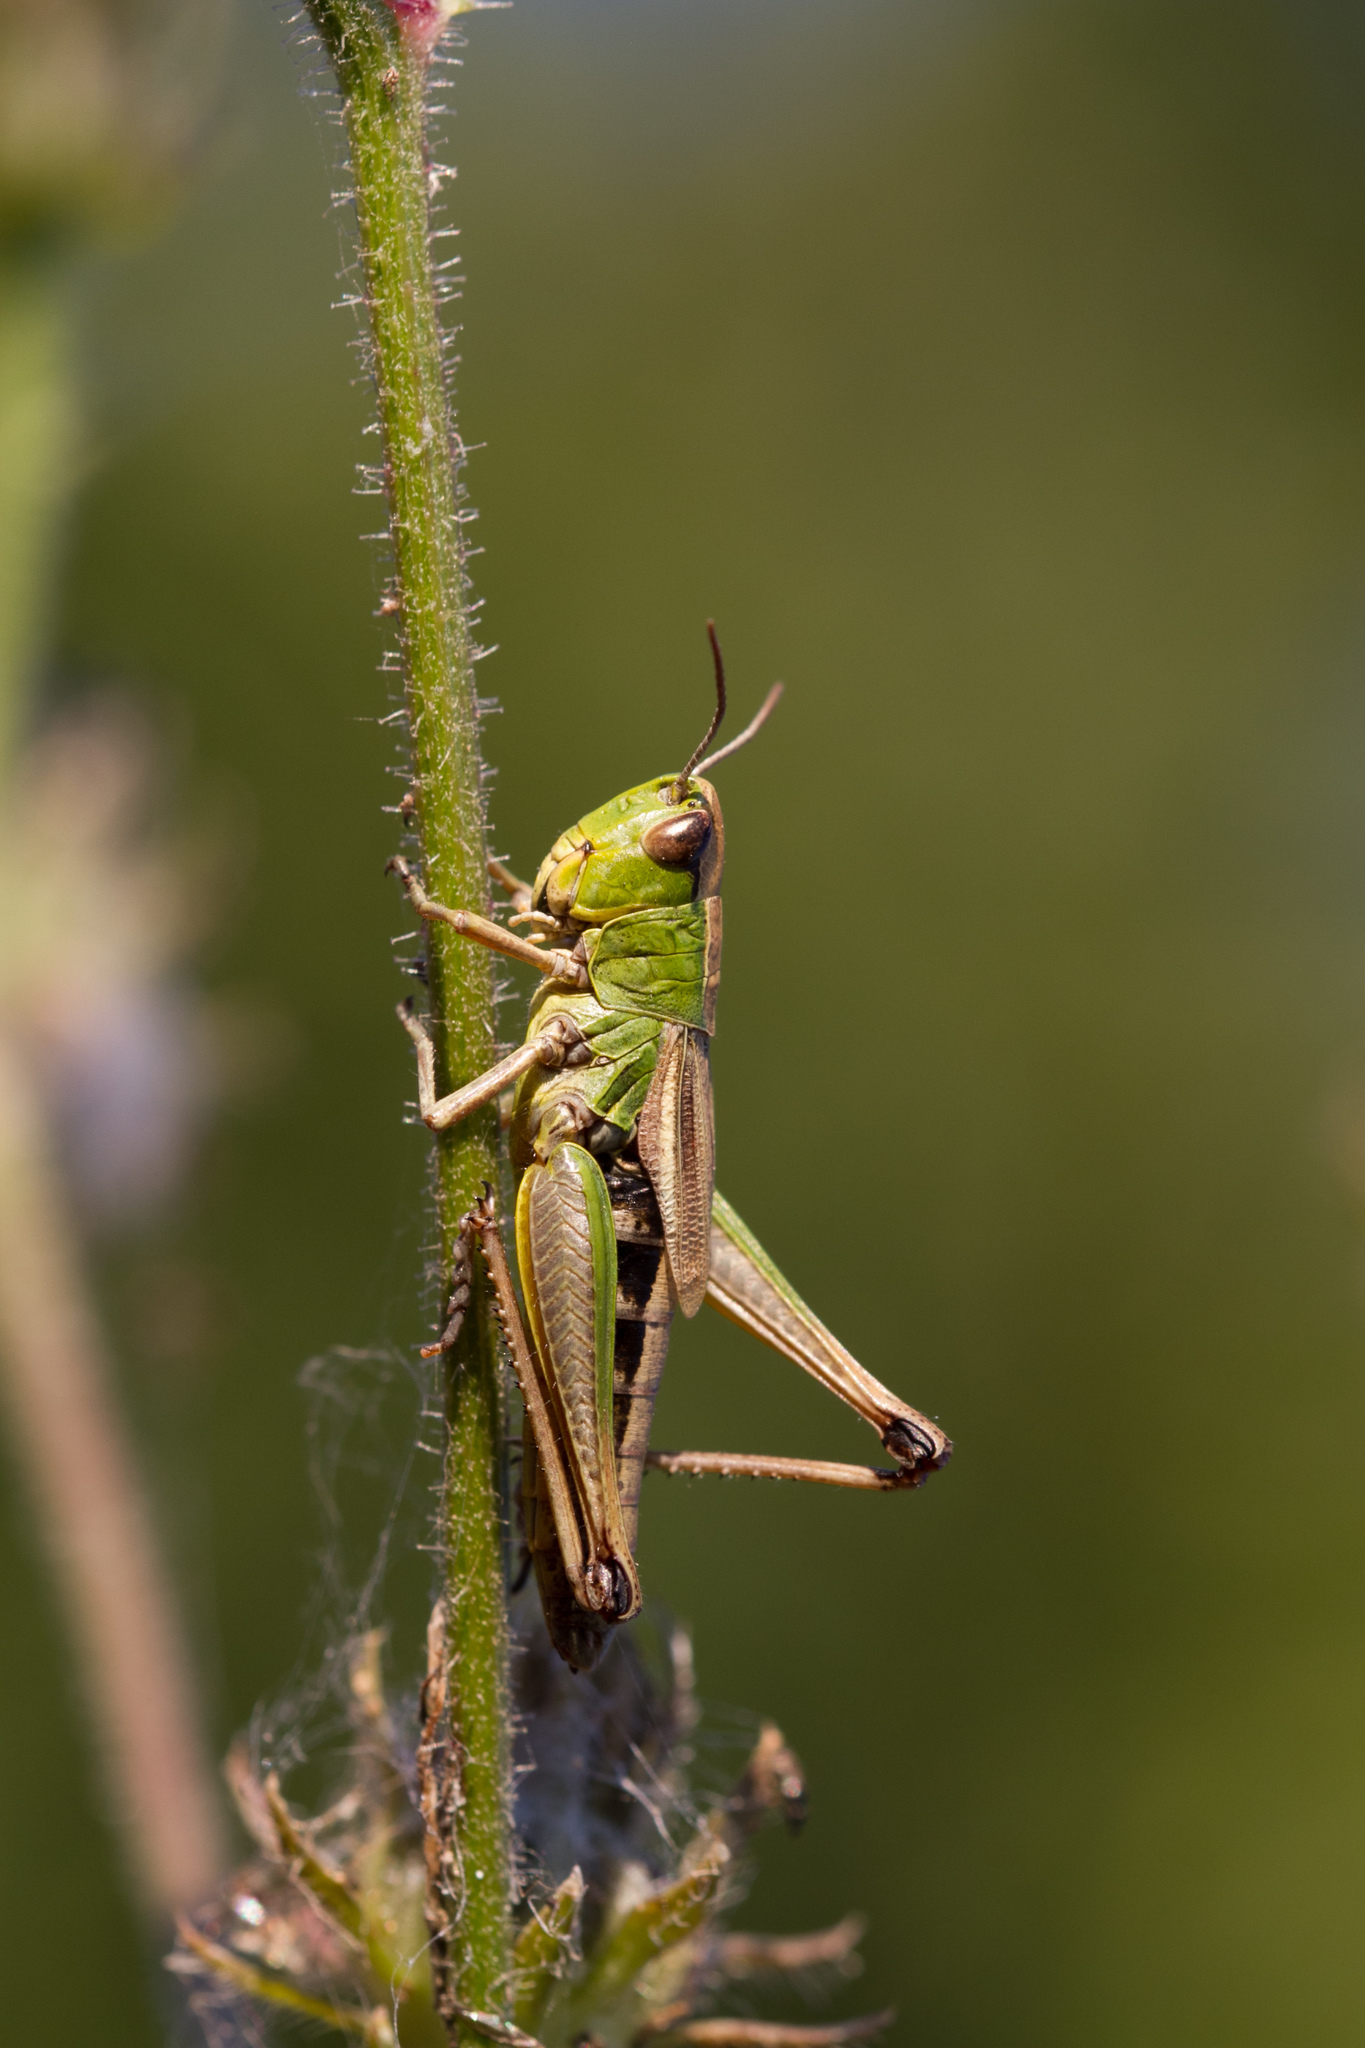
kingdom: Animalia
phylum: Arthropoda
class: Insecta
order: Orthoptera
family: Acrididae
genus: Pseudochorthippus
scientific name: Pseudochorthippus parallelus
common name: Meadow grasshopper
